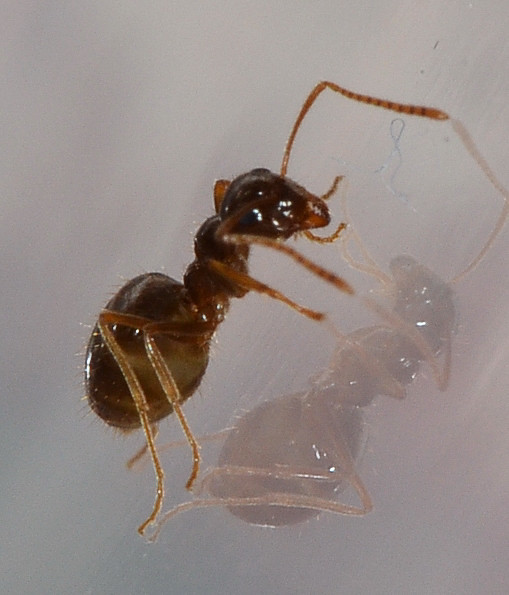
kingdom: Animalia
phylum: Arthropoda
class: Insecta
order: Hymenoptera
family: Formicidae
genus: Prenolepis
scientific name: Prenolepis imparis
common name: Small honey ant
